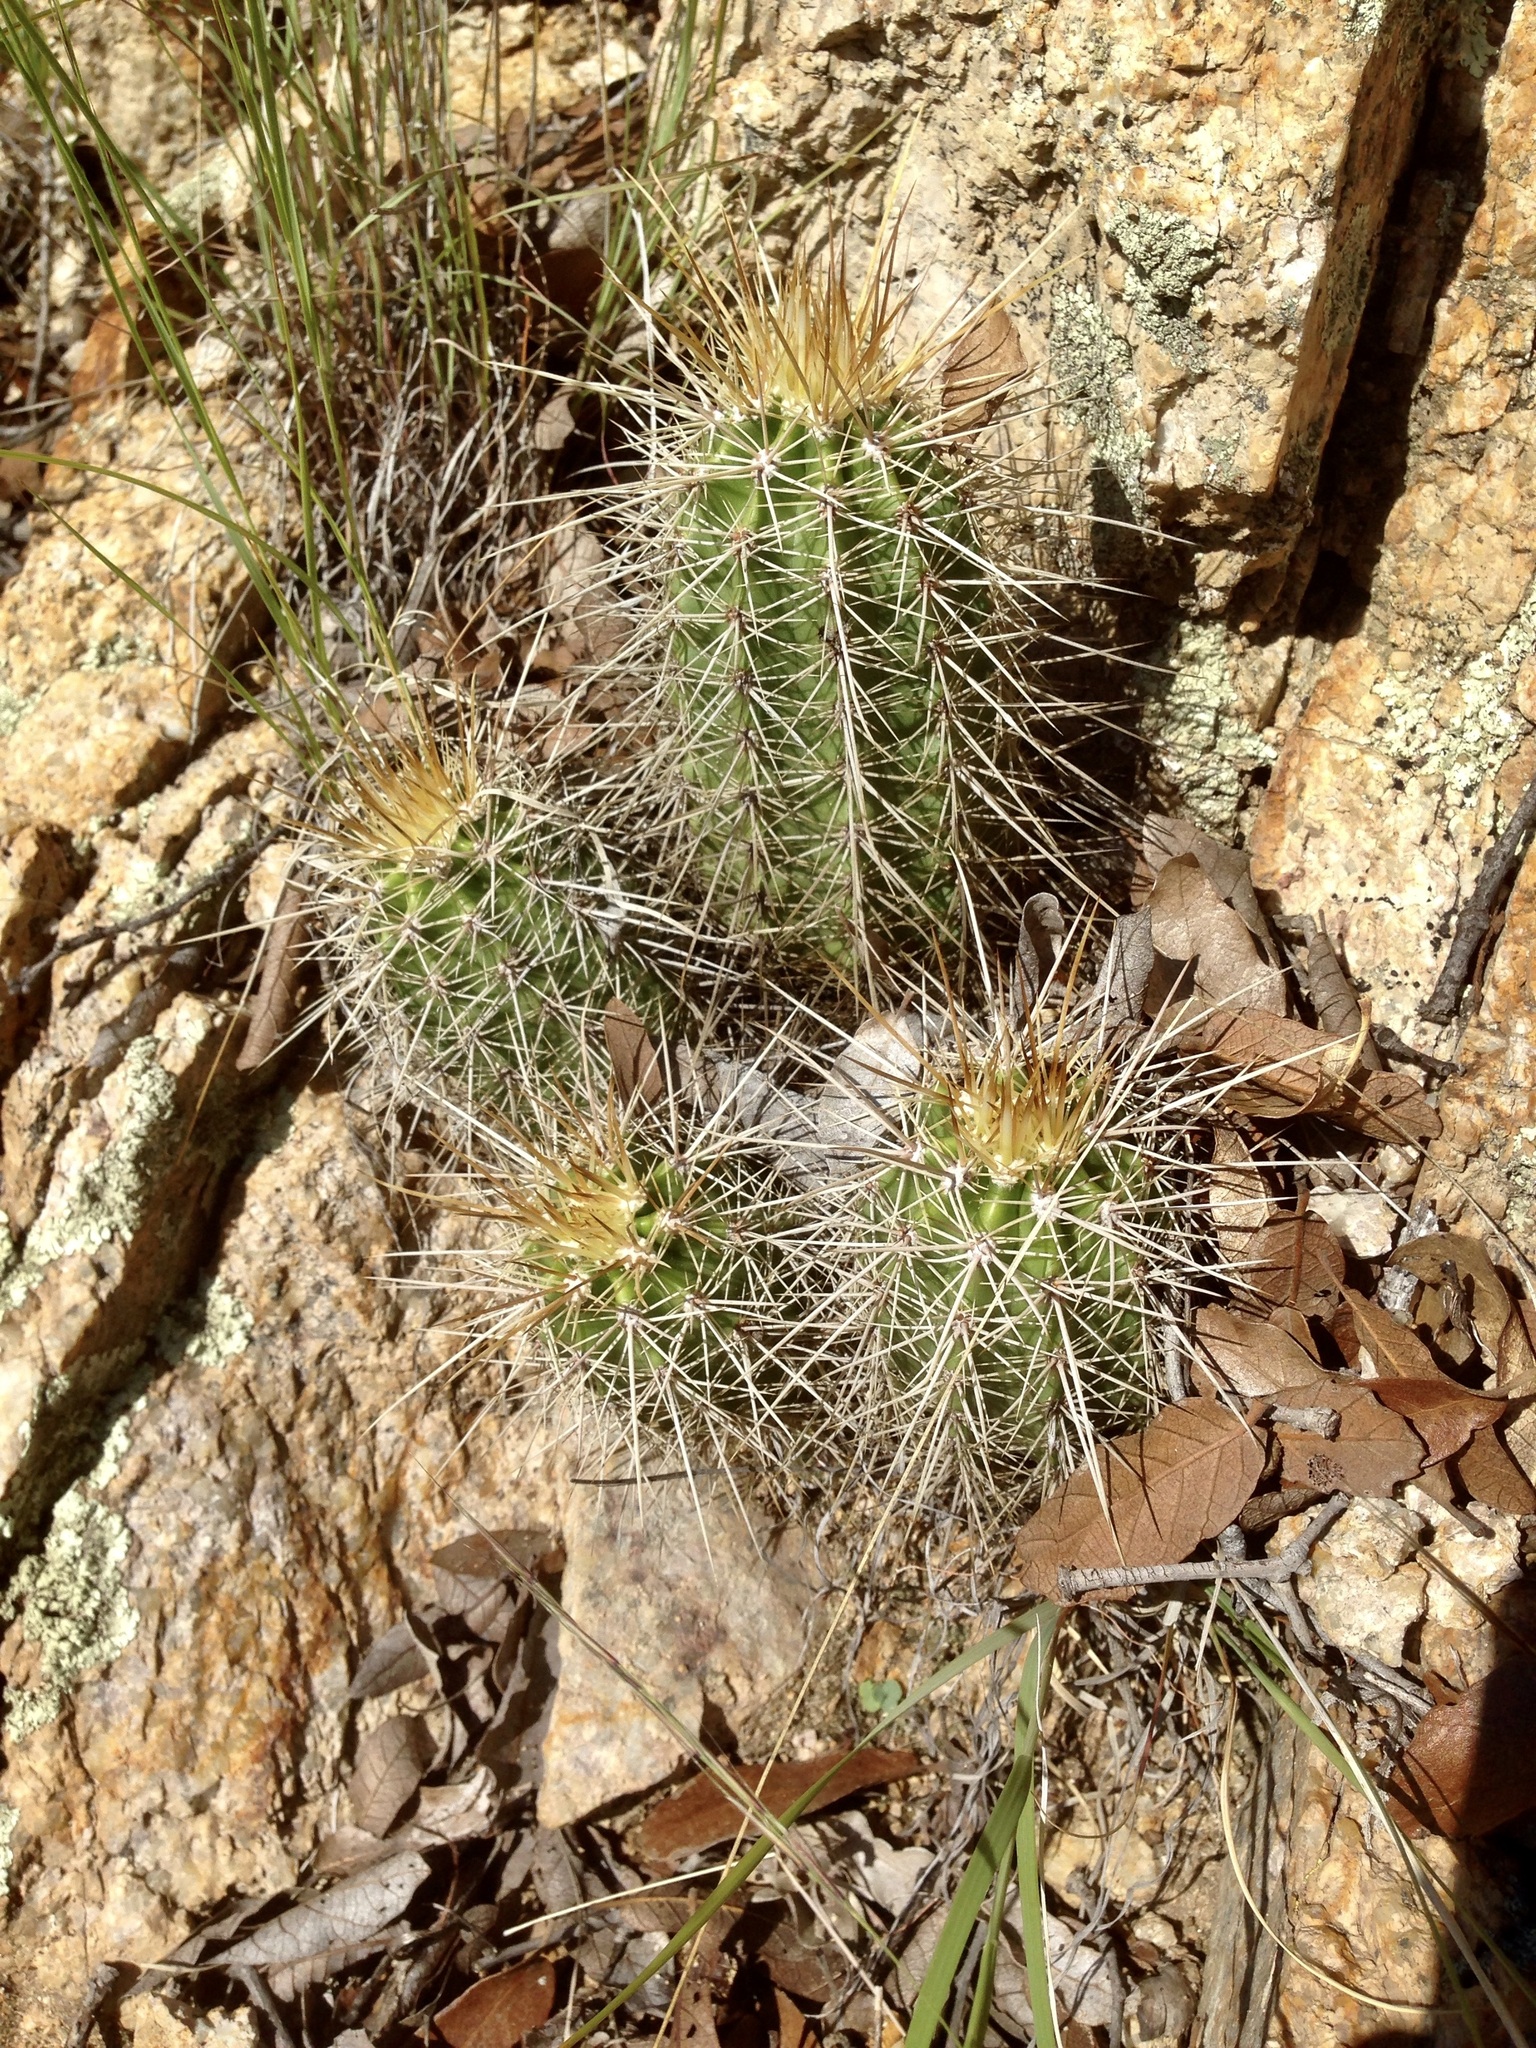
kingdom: Plantae
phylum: Tracheophyta
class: Magnoliopsida
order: Caryophyllales
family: Cactaceae
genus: Echinocereus
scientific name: Echinocereus coccineus
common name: Scarlet hedgehog cactus
